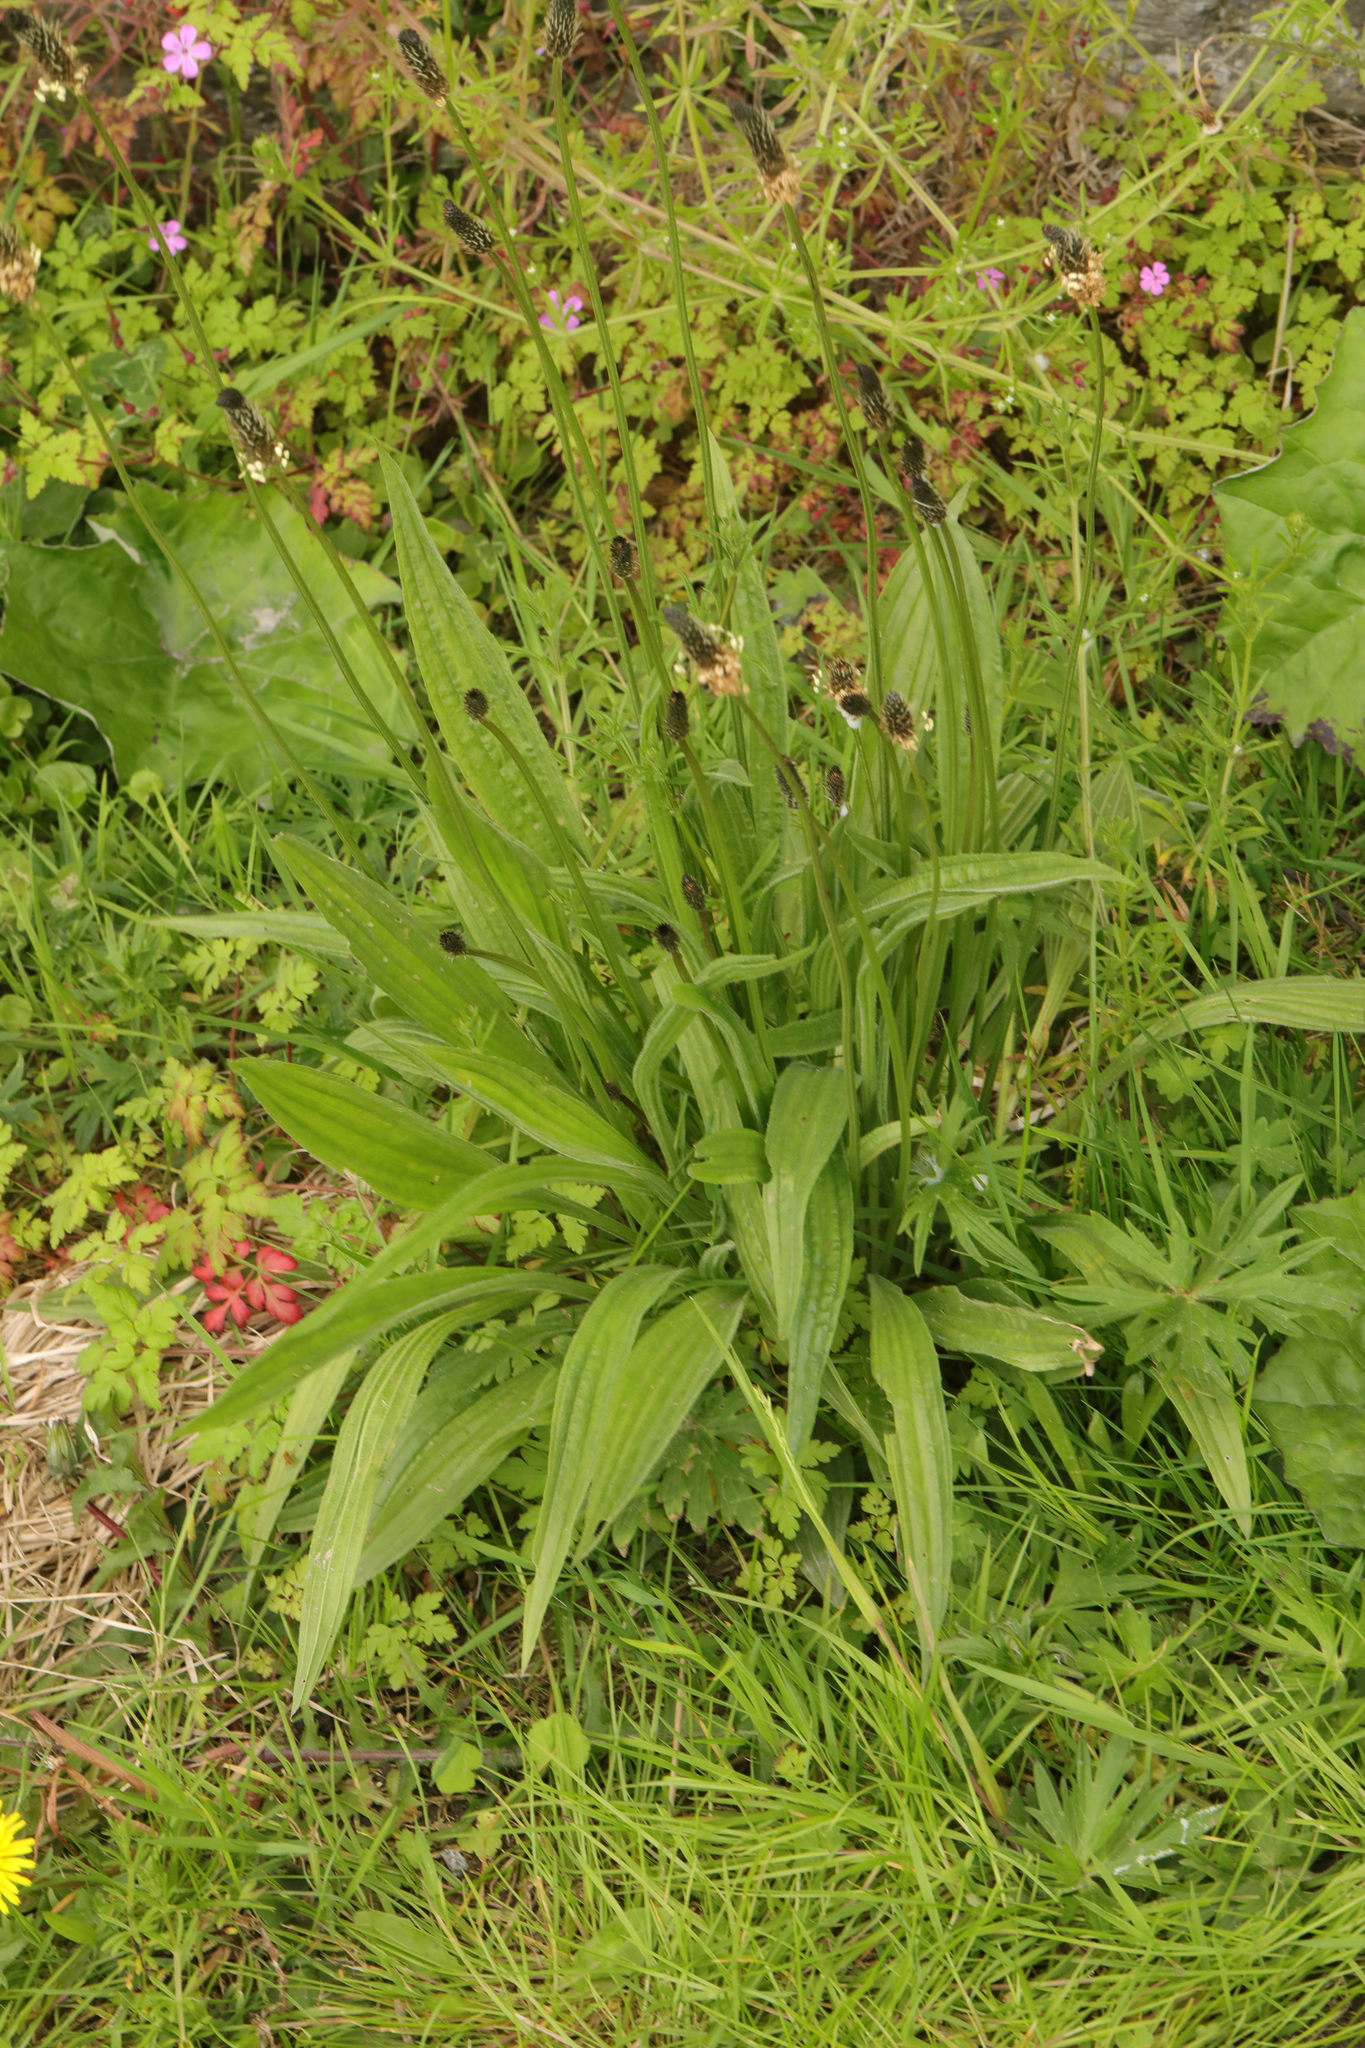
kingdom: Plantae
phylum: Tracheophyta
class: Magnoliopsida
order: Lamiales
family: Plantaginaceae
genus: Plantago
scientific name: Plantago lanceolata
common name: Ribwort plantain
